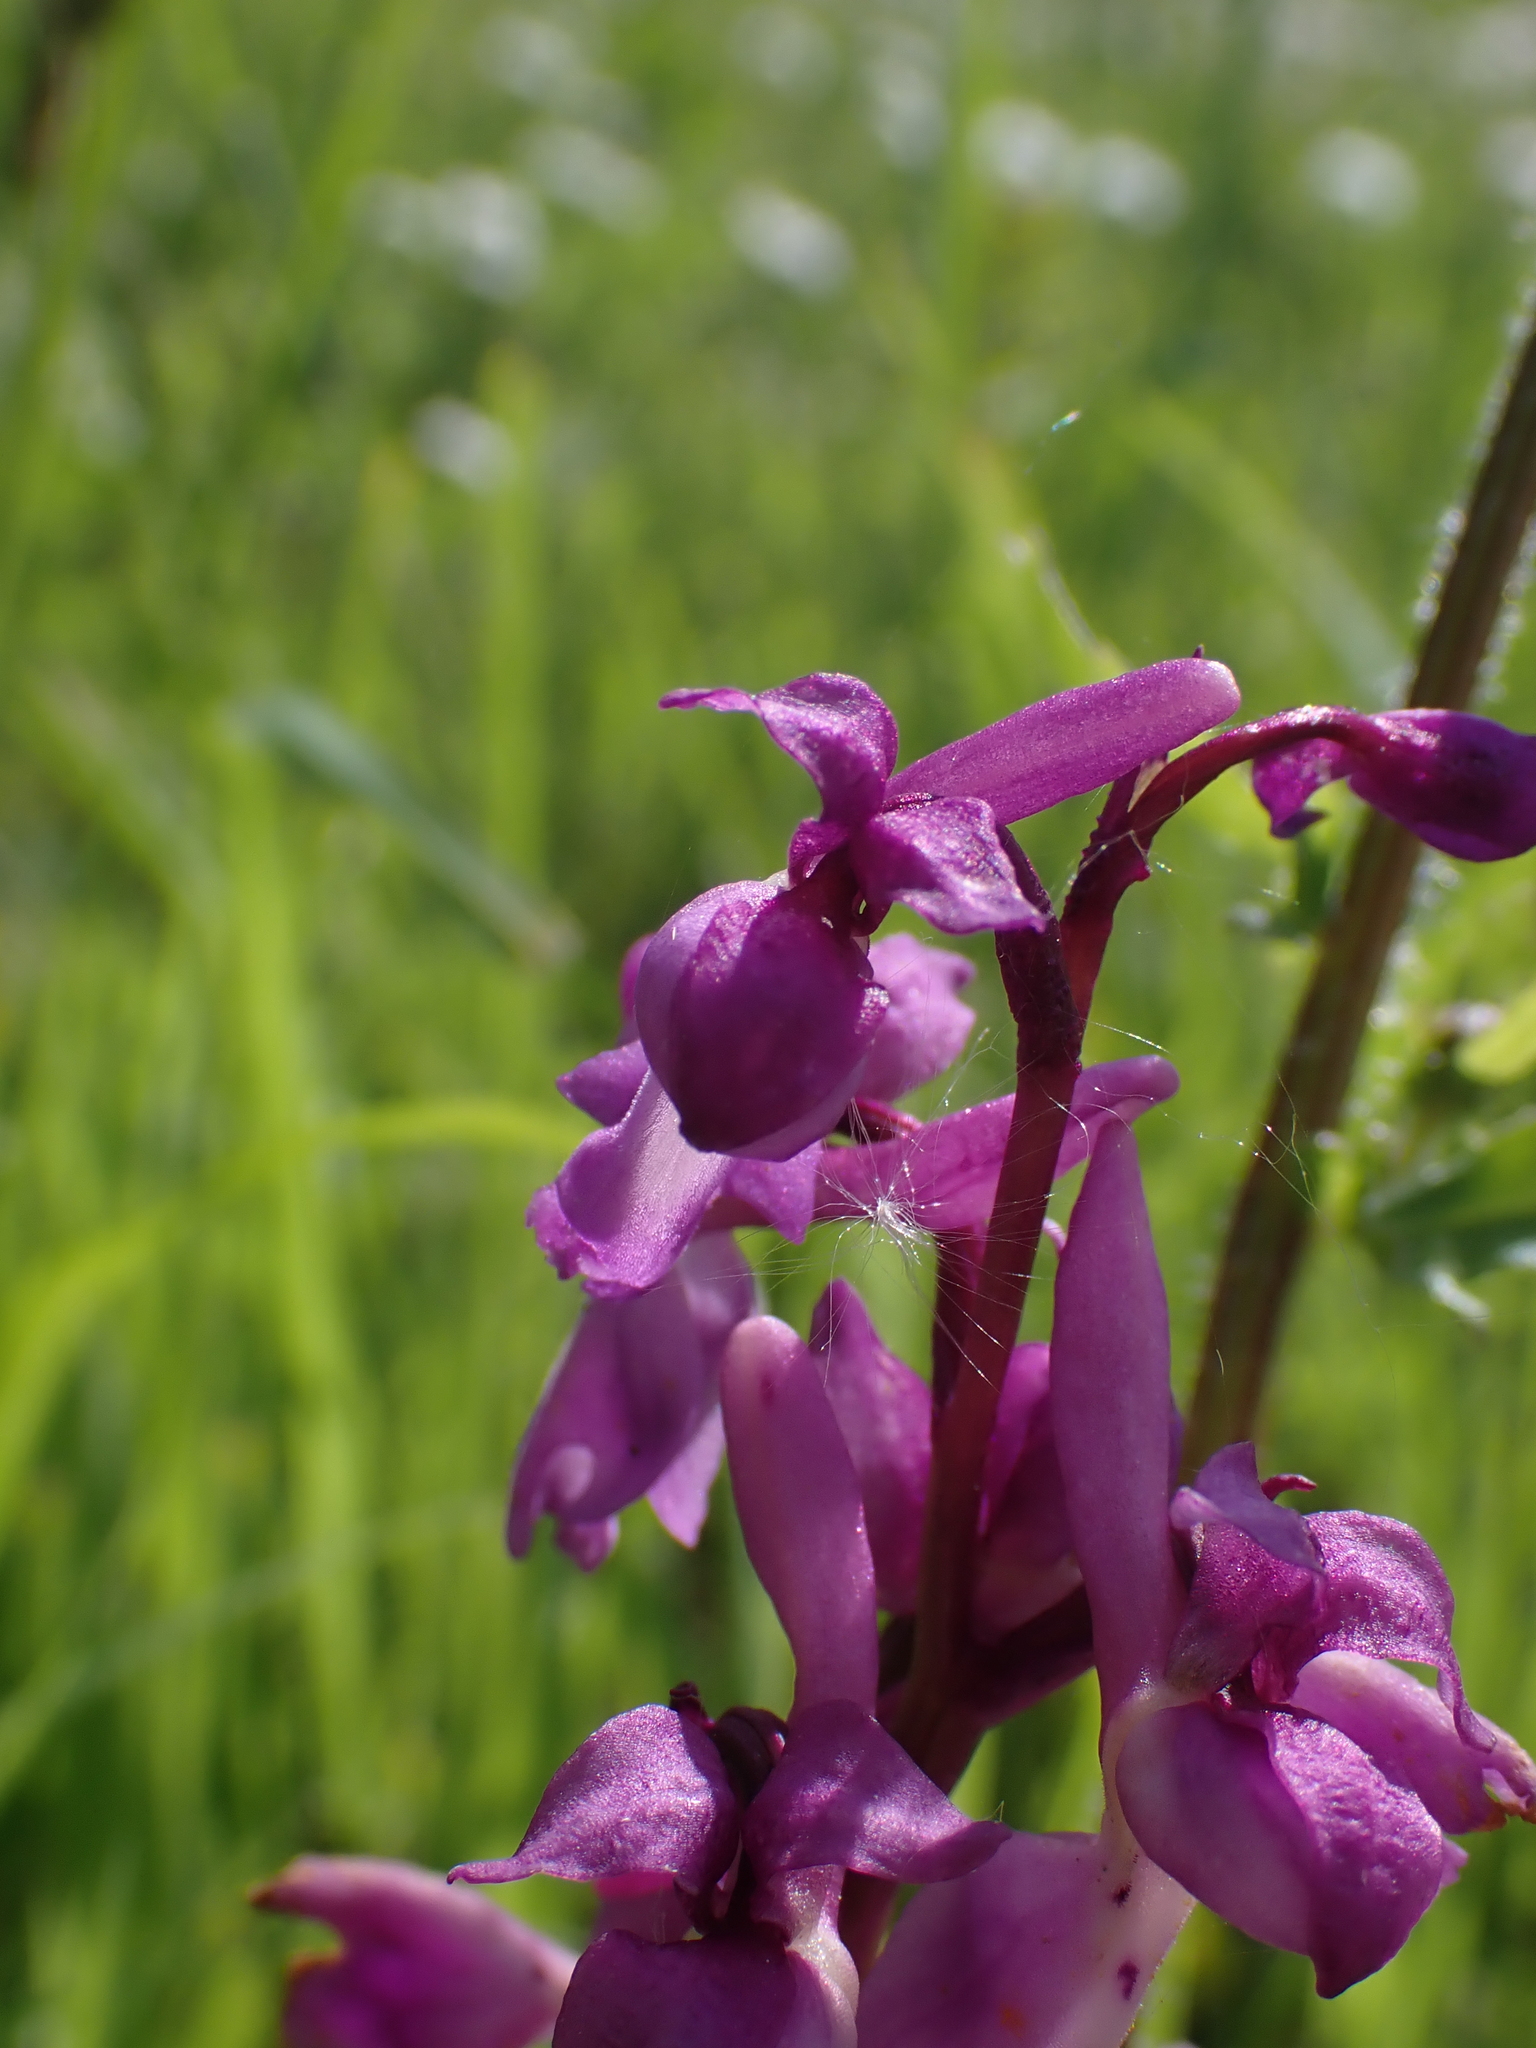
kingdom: Plantae
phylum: Tracheophyta
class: Liliopsida
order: Asparagales
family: Orchidaceae
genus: Orchis
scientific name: Orchis mascula
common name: Early-purple orchid
